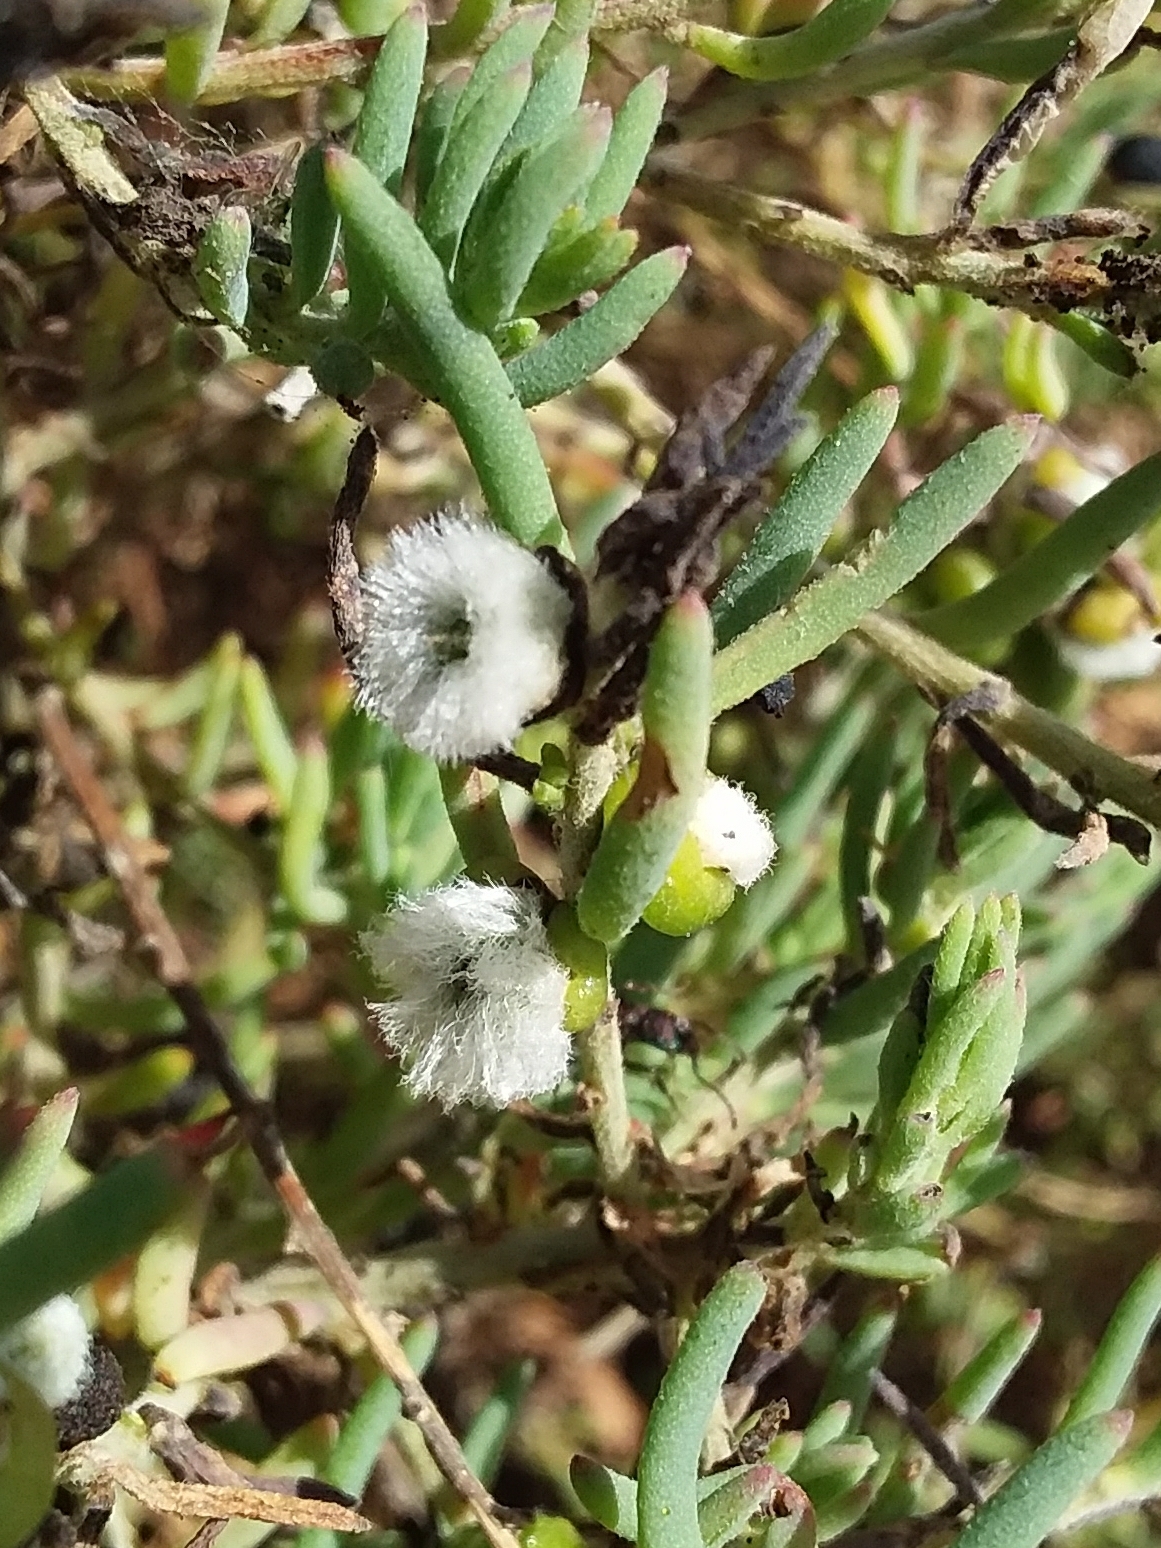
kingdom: Animalia
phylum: Arthropoda
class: Insecta
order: Diptera
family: Cecidomyiidae
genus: Asphondylia
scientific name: Asphondylia tonsura
